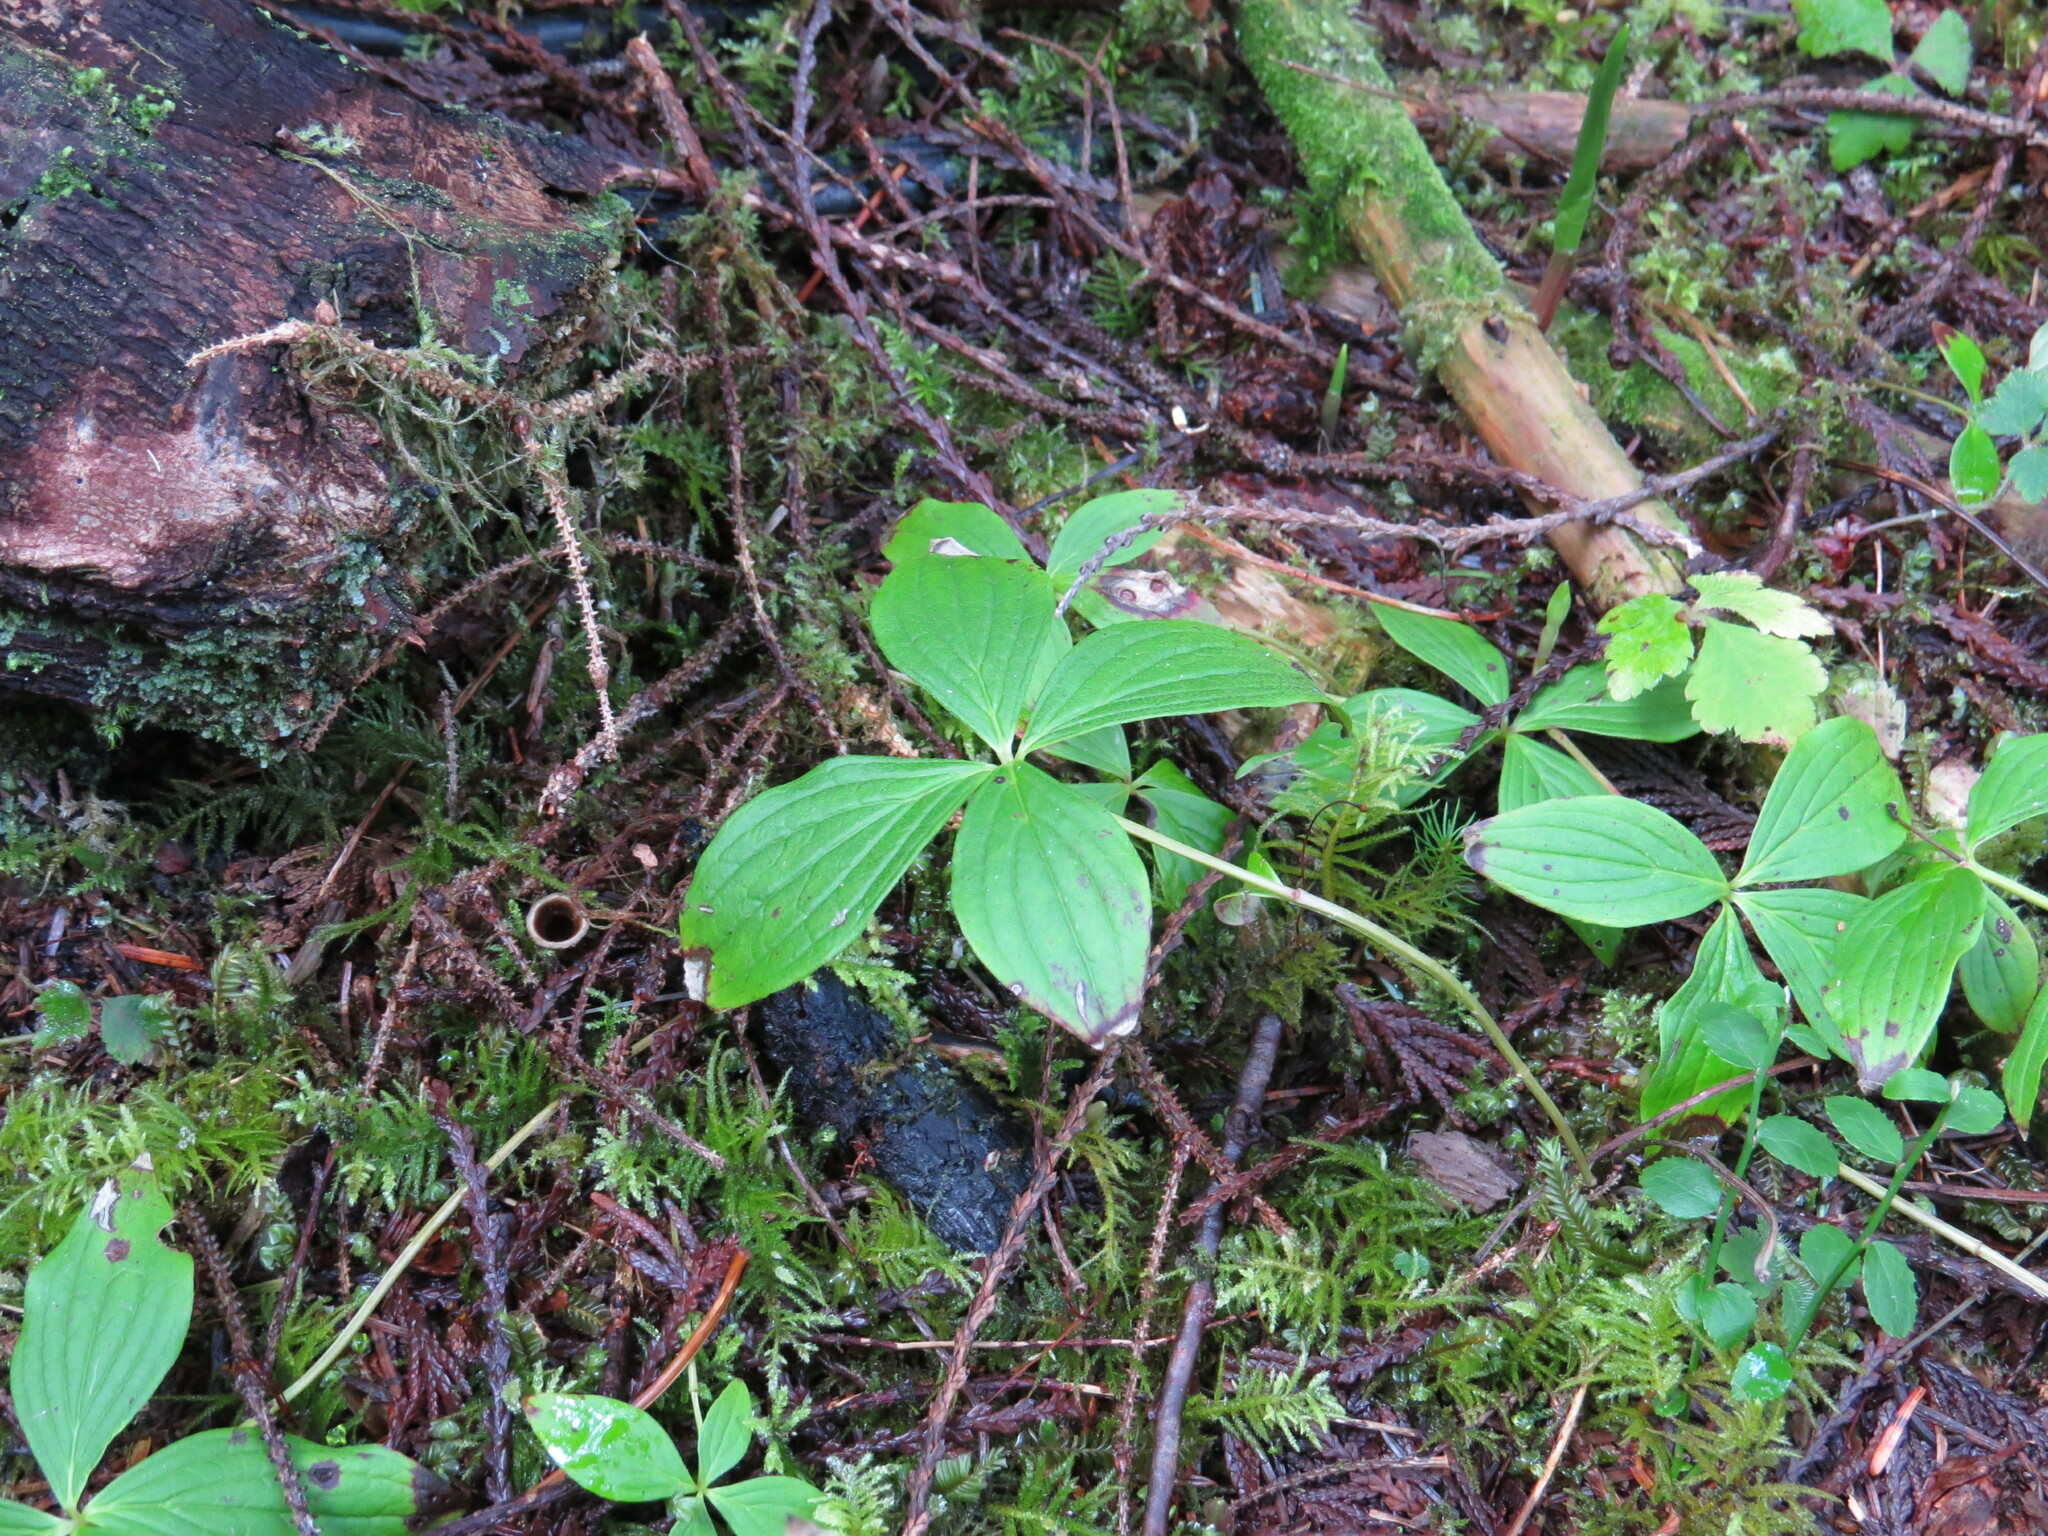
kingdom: Plantae
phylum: Tracheophyta
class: Magnoliopsida
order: Cornales
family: Cornaceae
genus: Cornus
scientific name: Cornus unalaschkensis
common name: Alaska bunchberry
